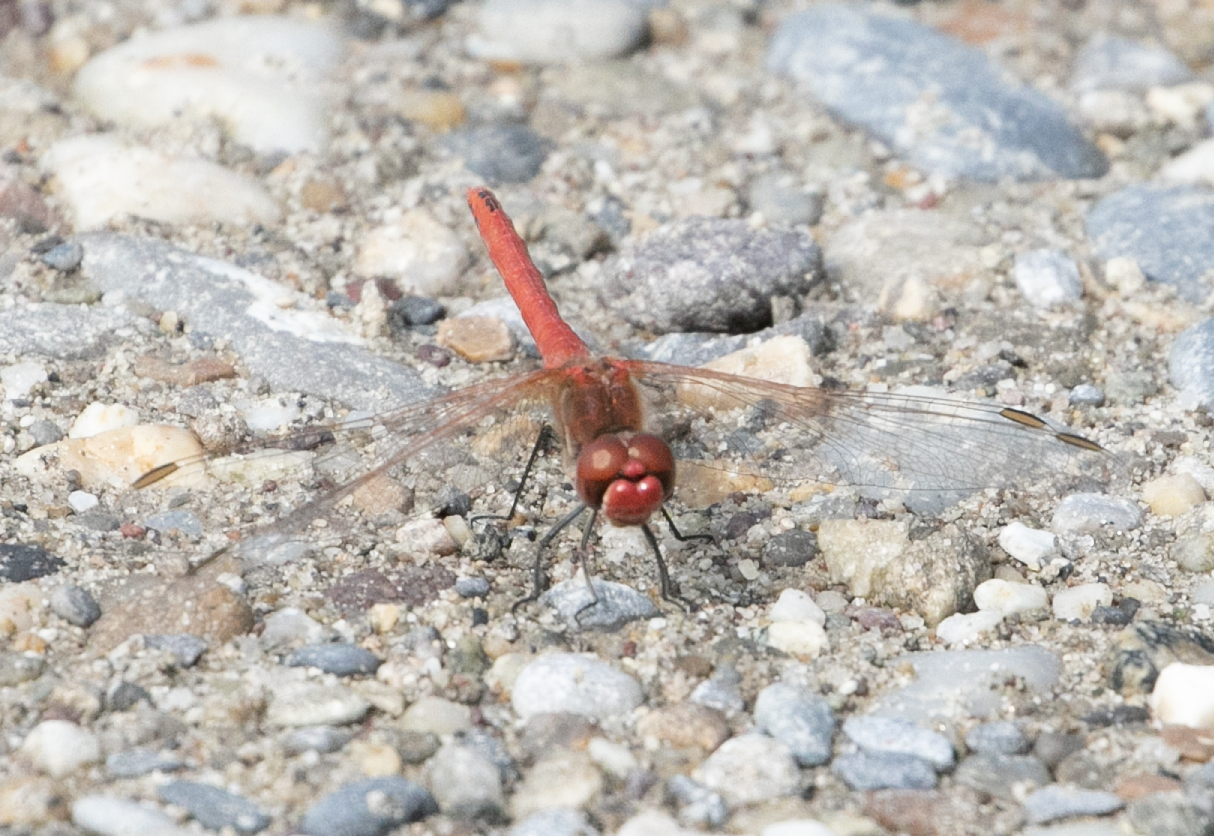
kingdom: Animalia
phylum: Arthropoda
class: Insecta
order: Odonata
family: Libellulidae
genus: Sympetrum
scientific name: Sympetrum fonscolombii
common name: Red-veined darter
